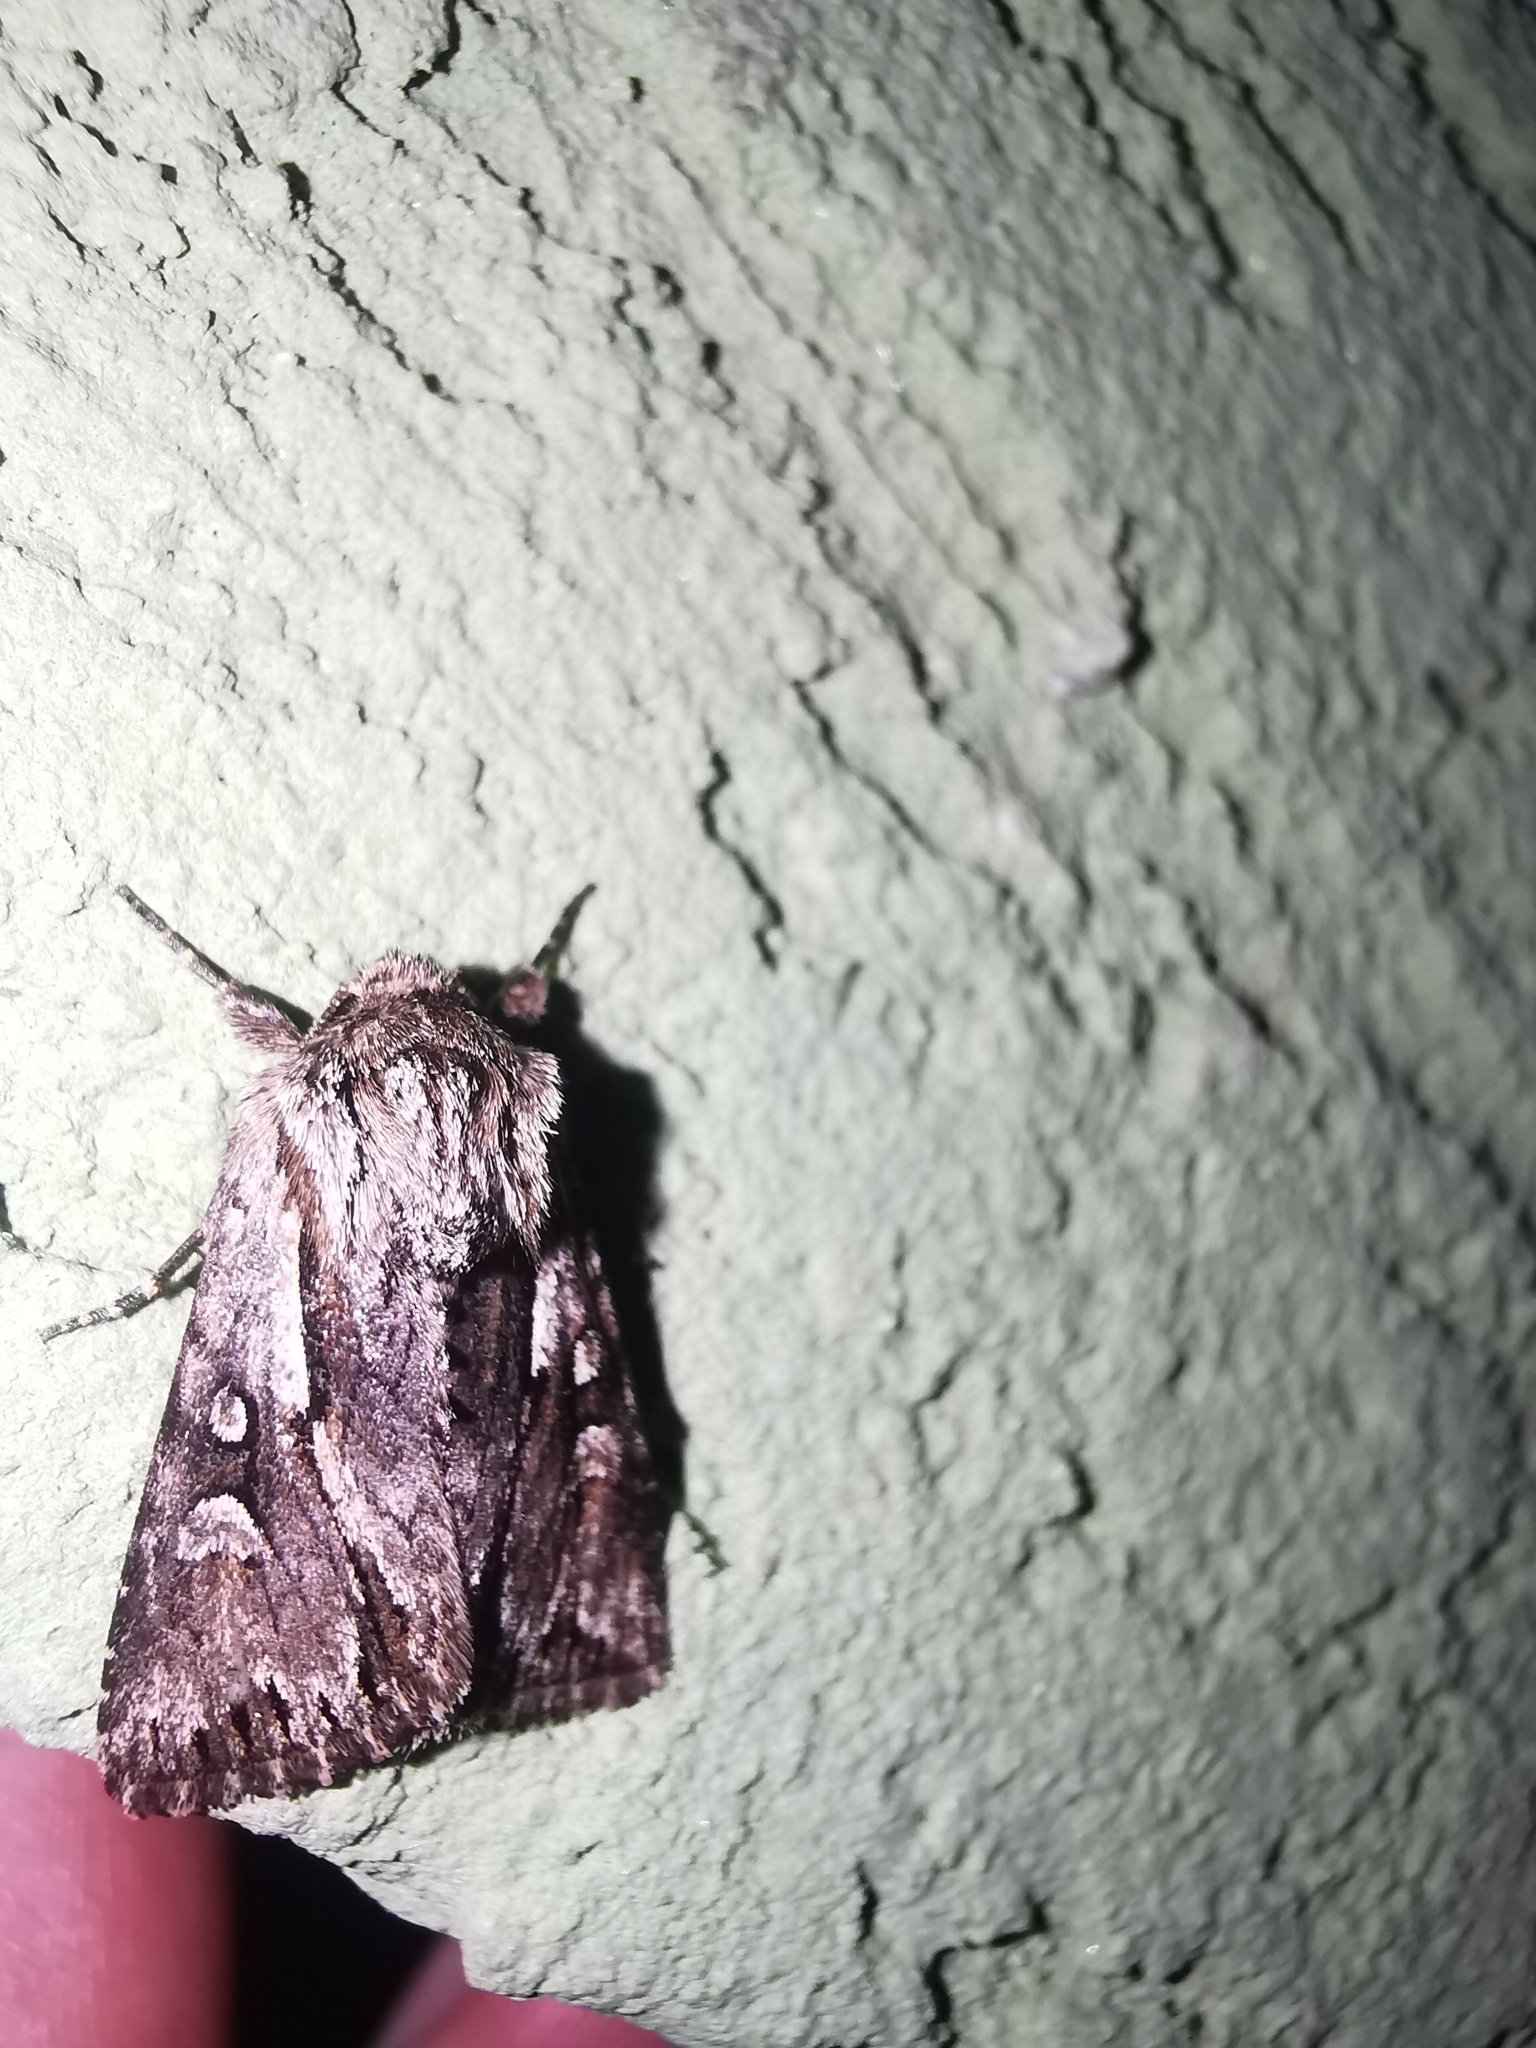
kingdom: Animalia
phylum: Arthropoda
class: Insecta
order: Lepidoptera
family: Noctuidae
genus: Chloantha
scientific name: Chloantha hyperici
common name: Pale-shouldered cloud
